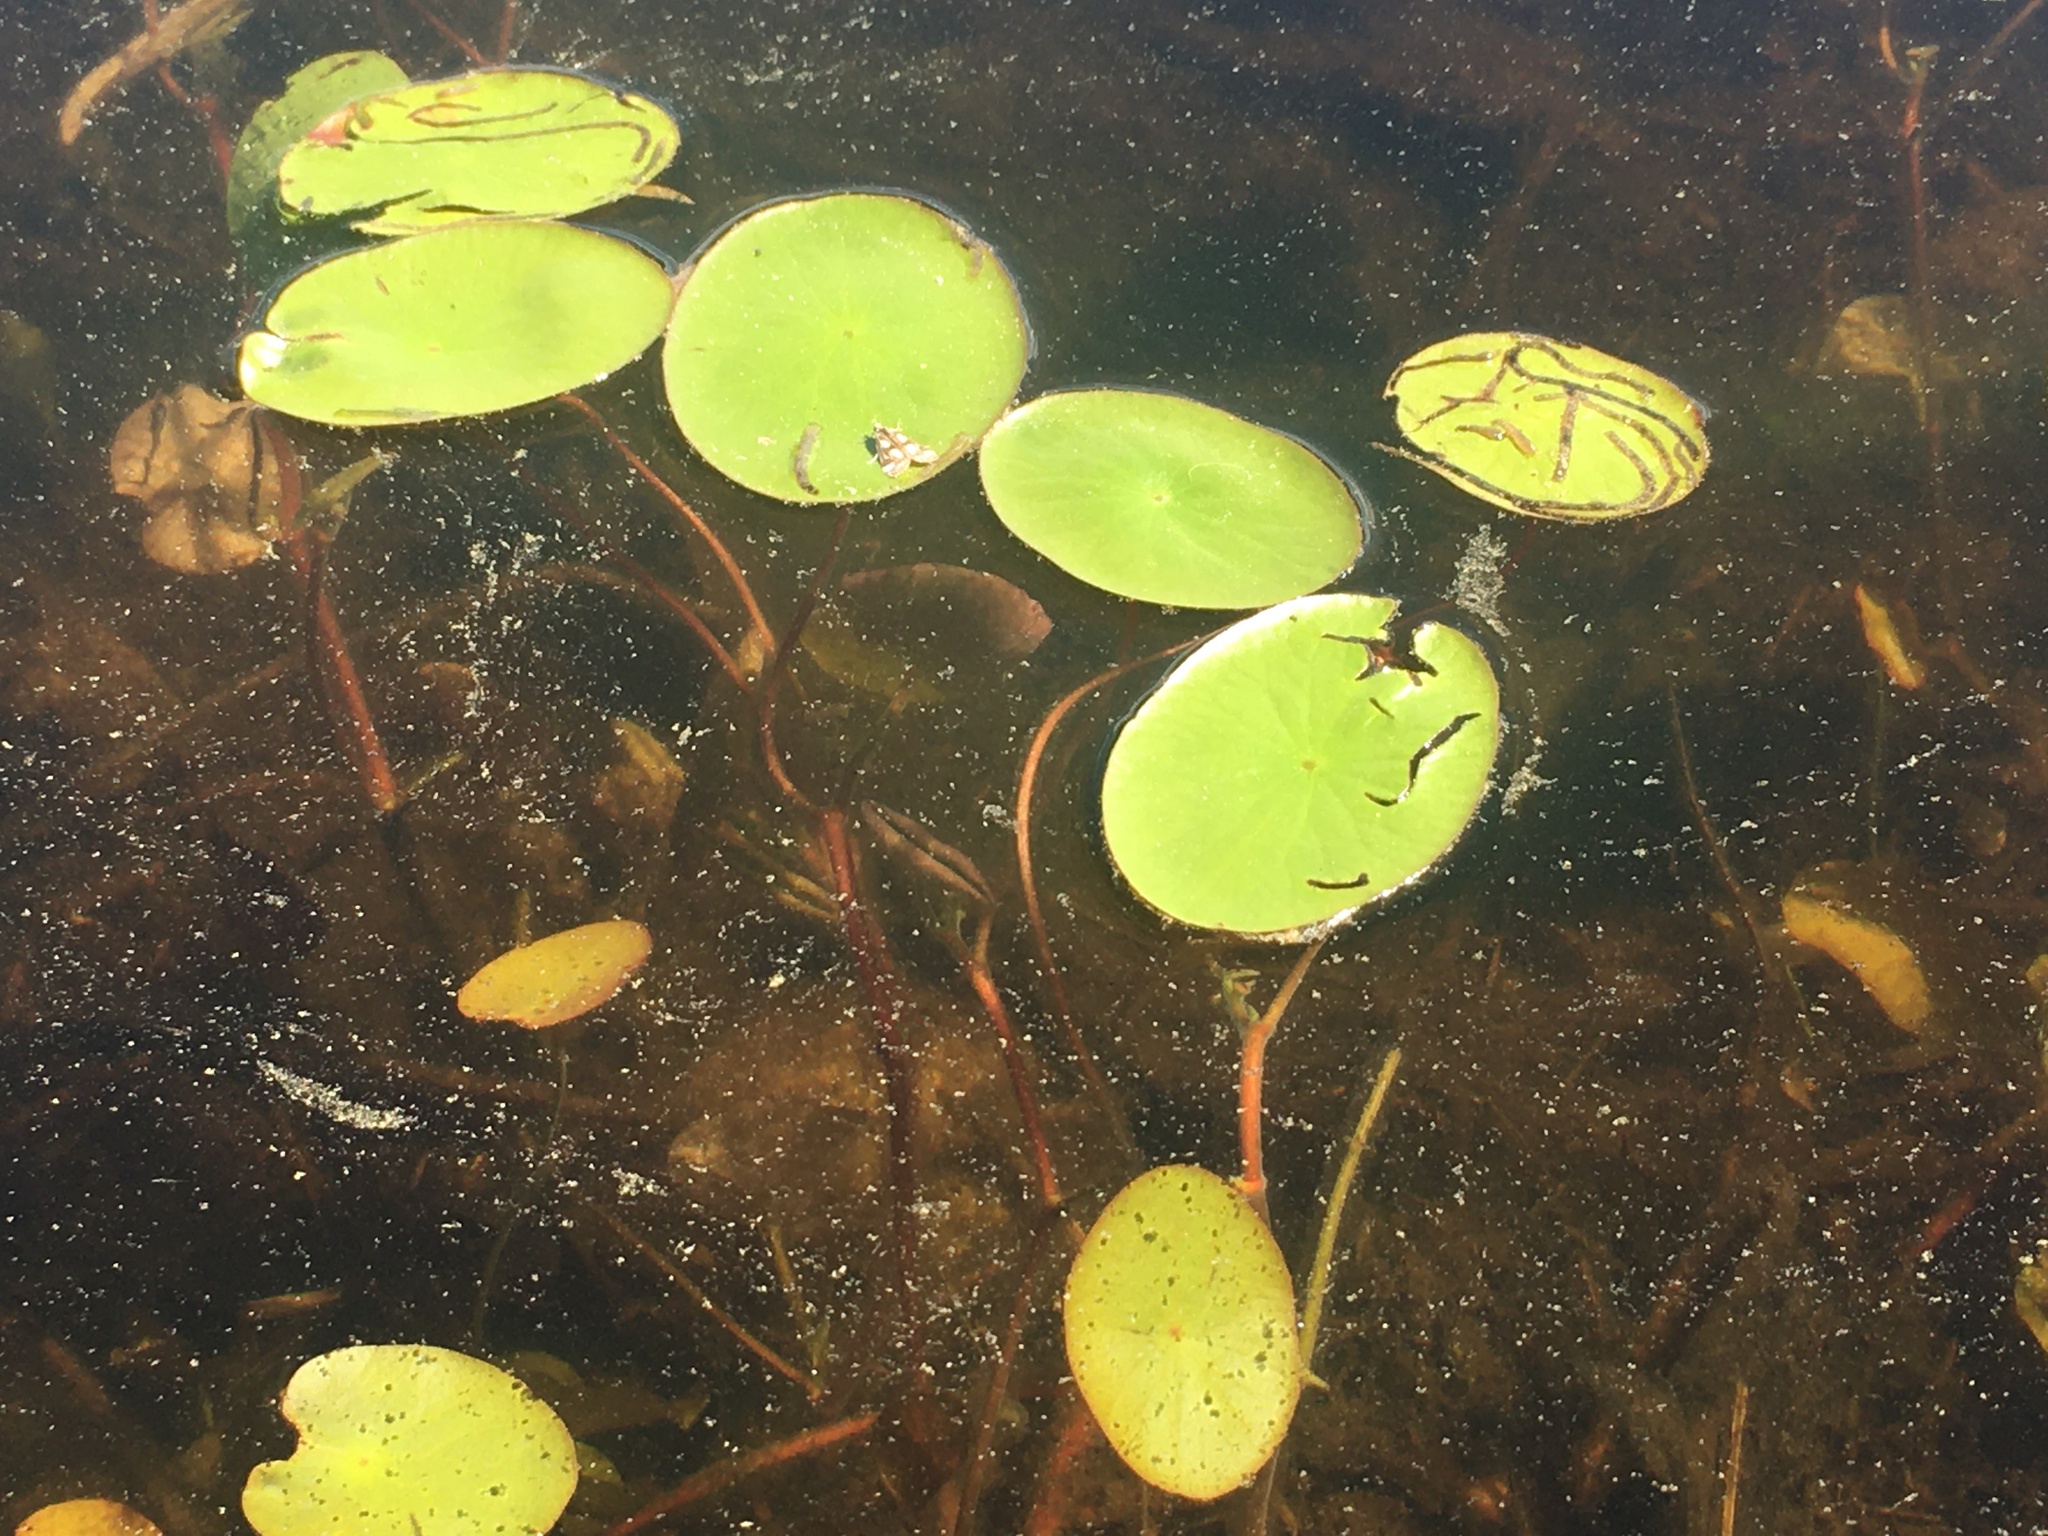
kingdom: Plantae
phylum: Tracheophyta
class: Magnoliopsida
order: Nymphaeales
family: Cabombaceae
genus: Brasenia
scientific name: Brasenia schreberi
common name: Water-shield
